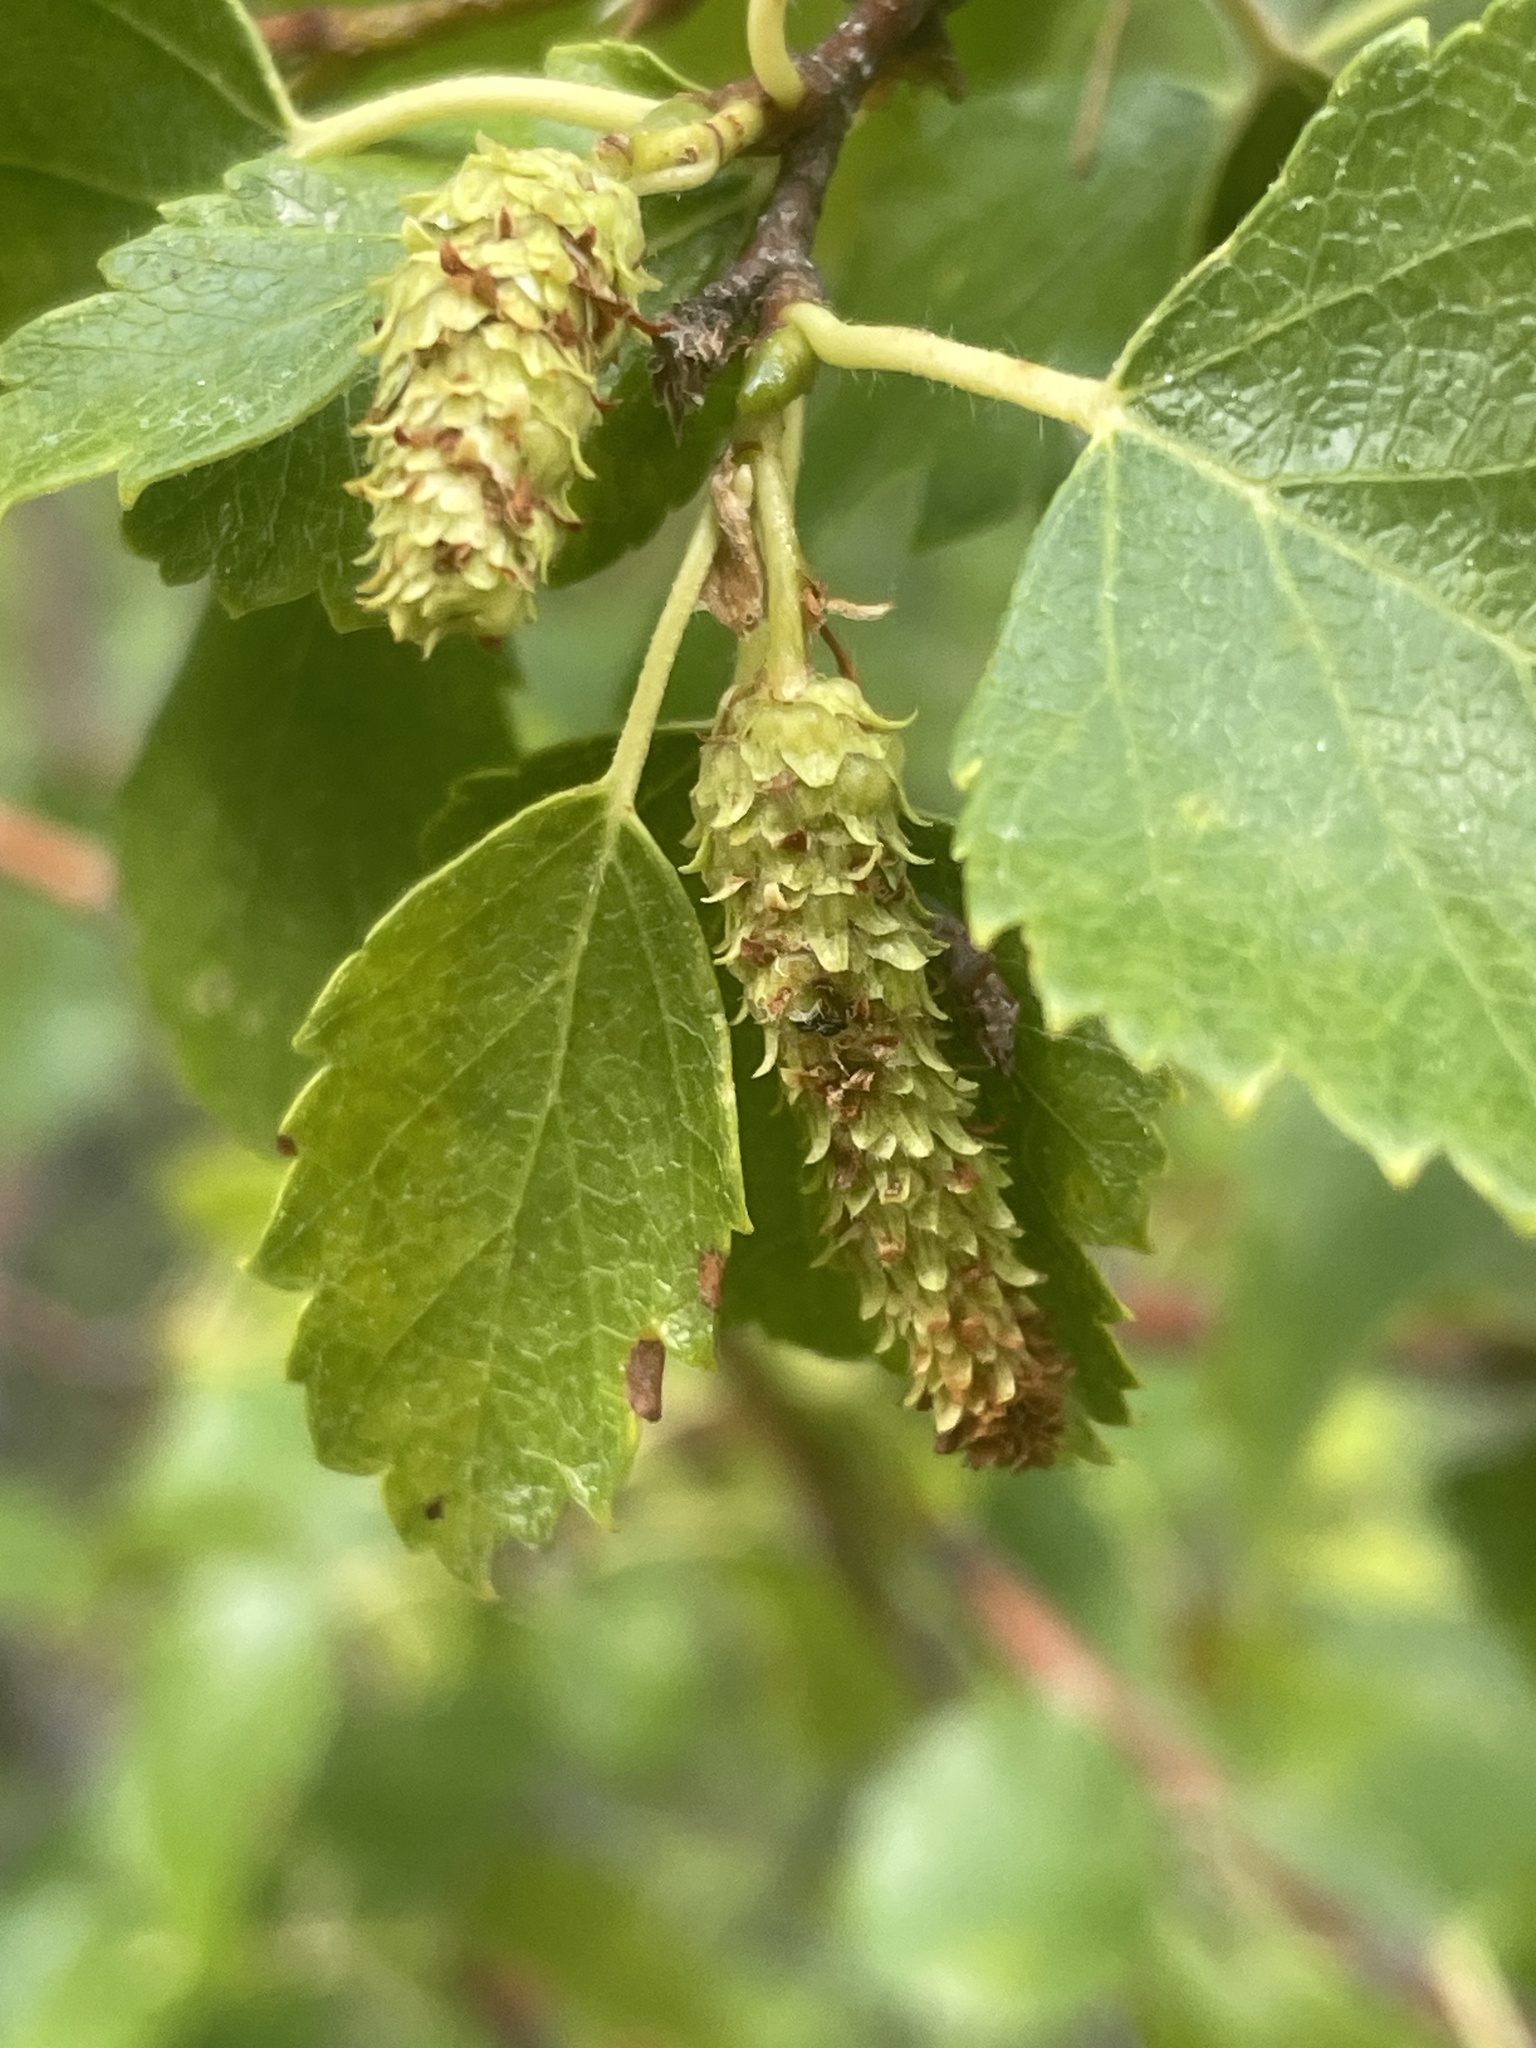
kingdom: Plantae
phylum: Tracheophyta
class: Magnoliopsida
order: Fagales
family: Betulaceae
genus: Betula
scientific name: Betula occidentalis
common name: River birch
